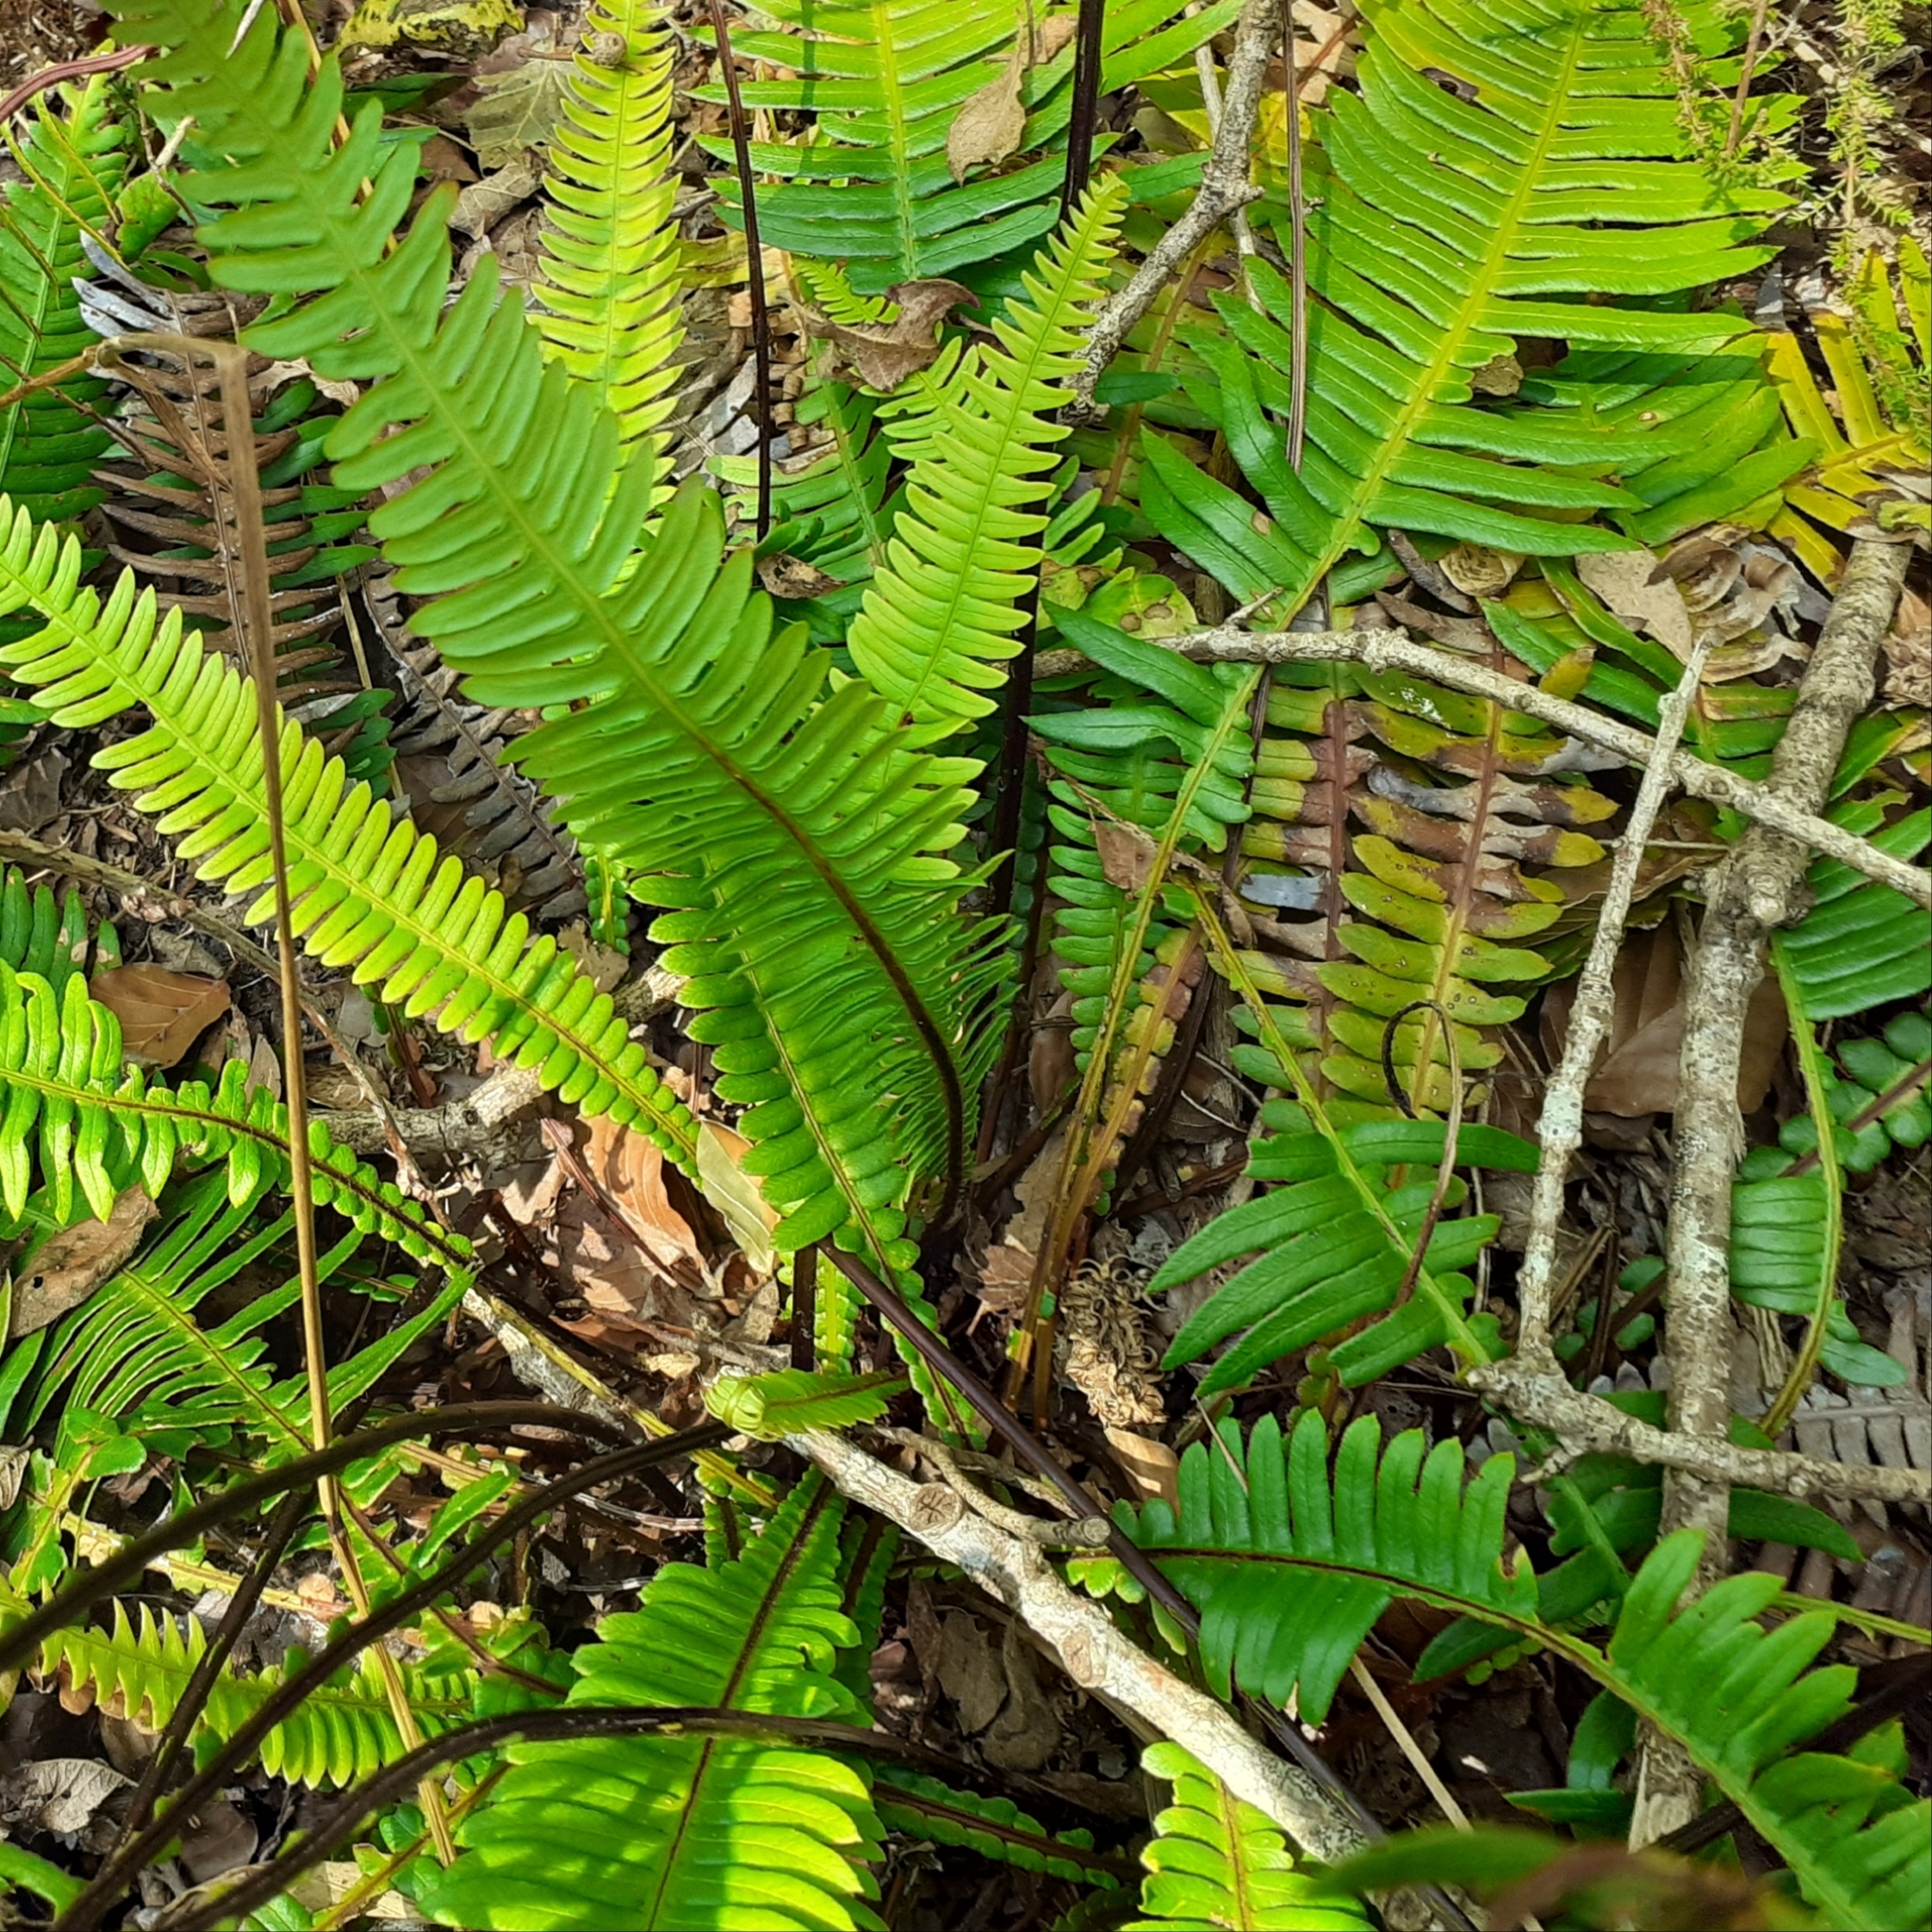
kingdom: Plantae
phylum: Tracheophyta
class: Polypodiopsida
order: Polypodiales
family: Blechnaceae
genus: Struthiopteris
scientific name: Struthiopteris spicant
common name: Deer fern
